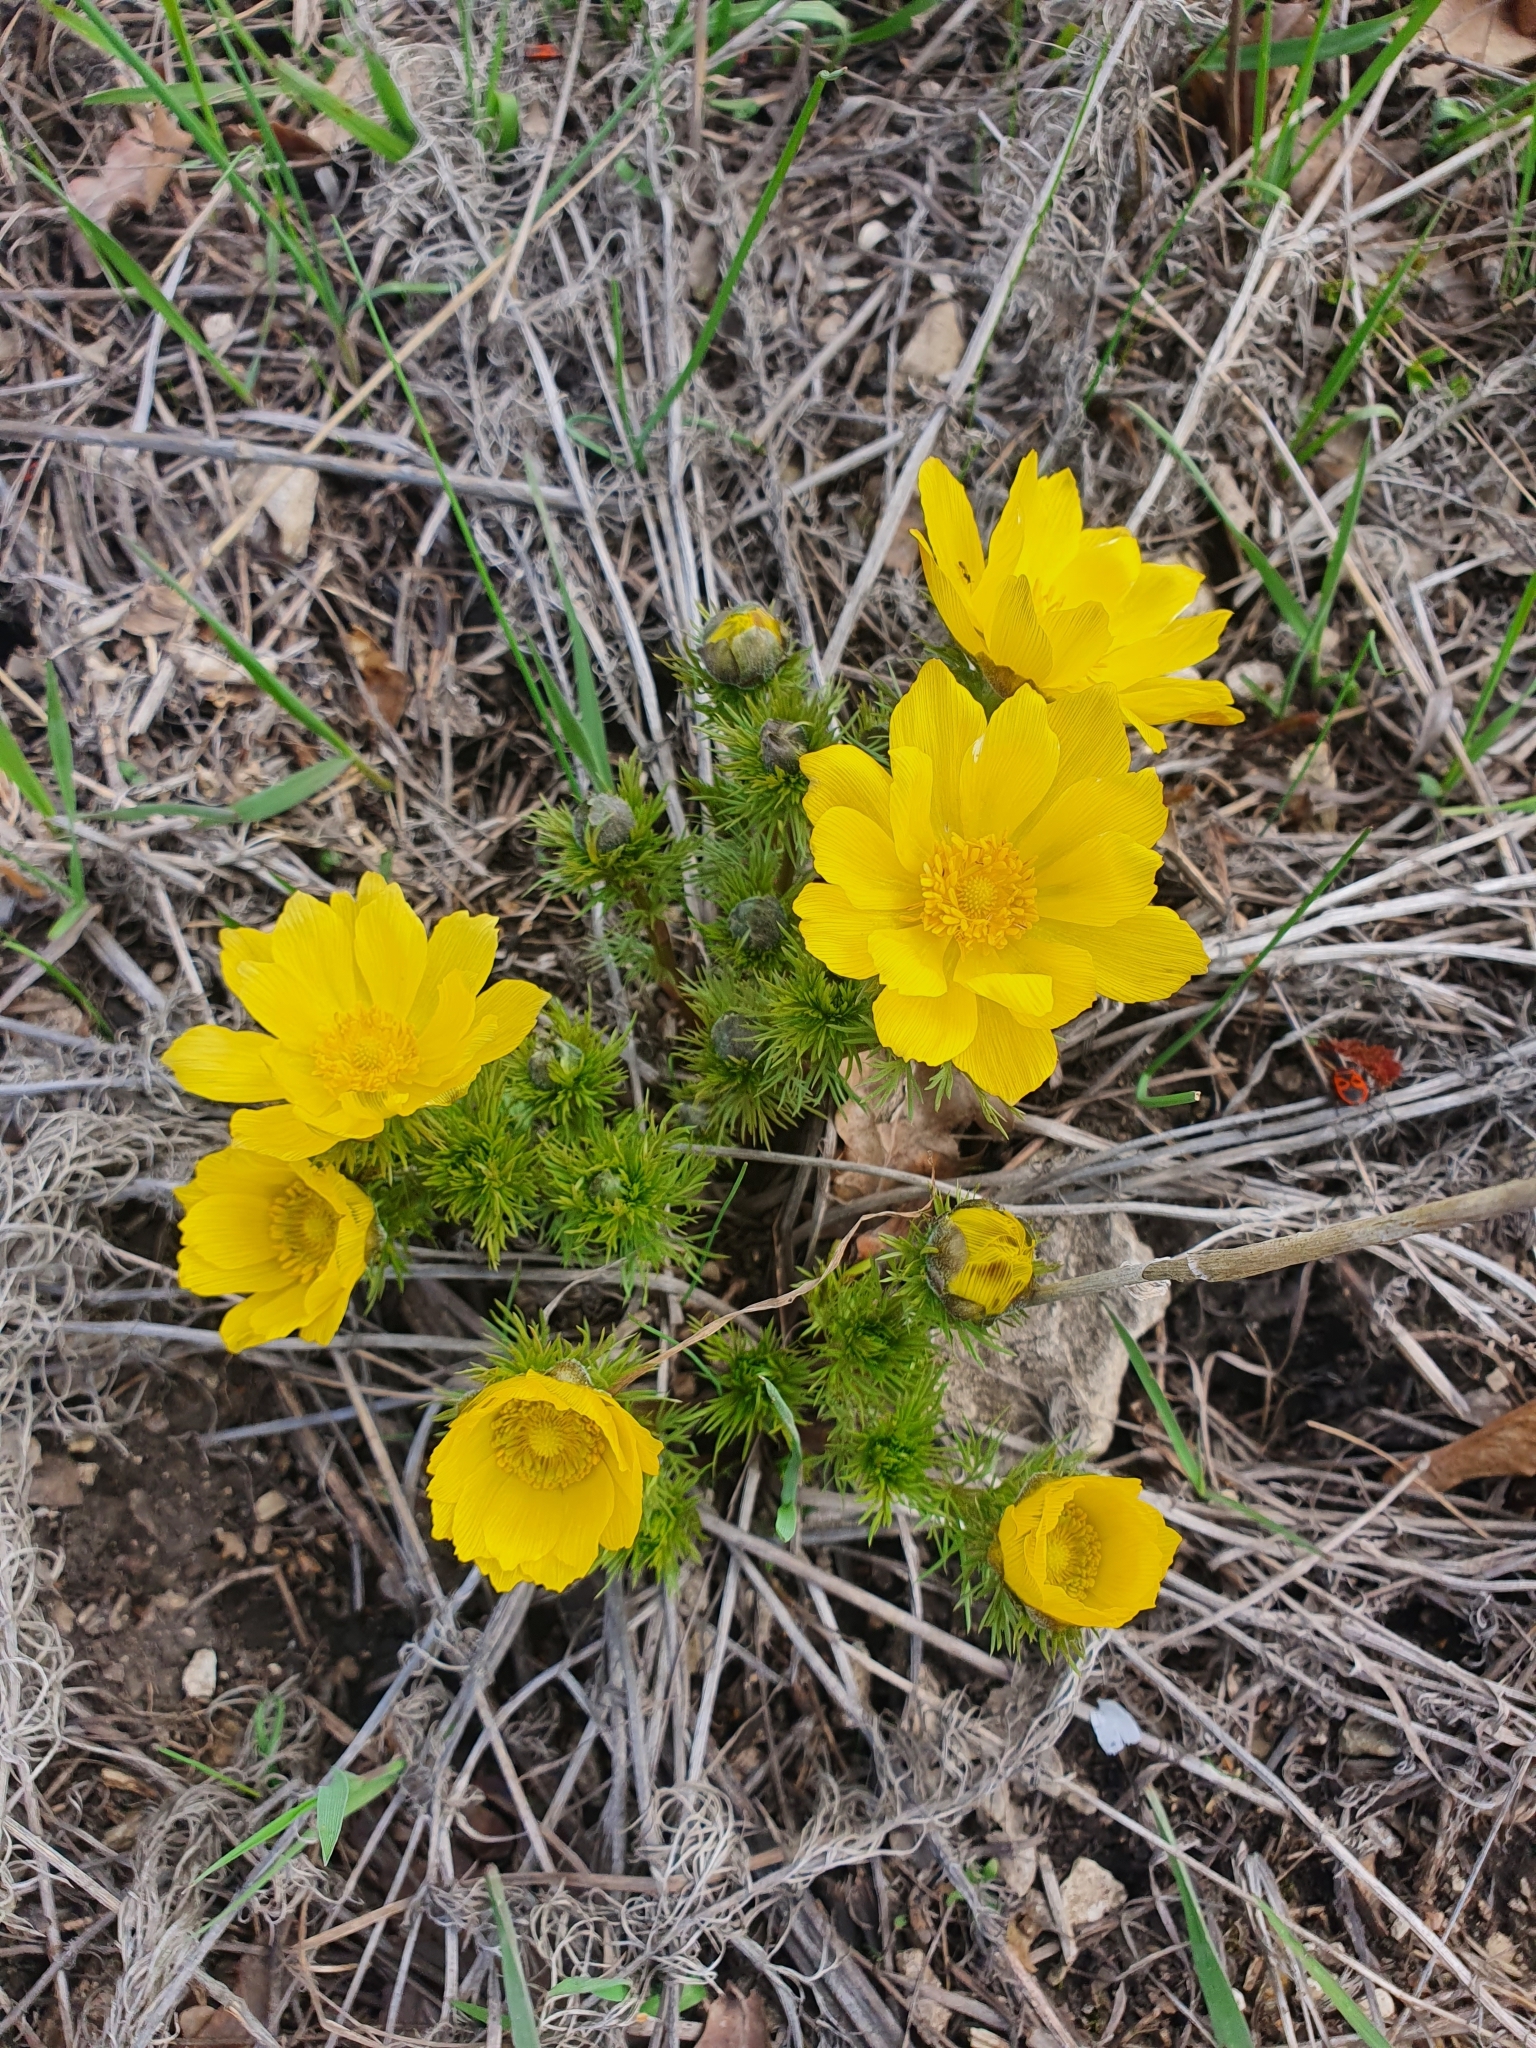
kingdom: Plantae
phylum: Tracheophyta
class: Magnoliopsida
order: Ranunculales
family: Ranunculaceae
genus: Adonis
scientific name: Adonis vernalis
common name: Yellow pheasants-eye
